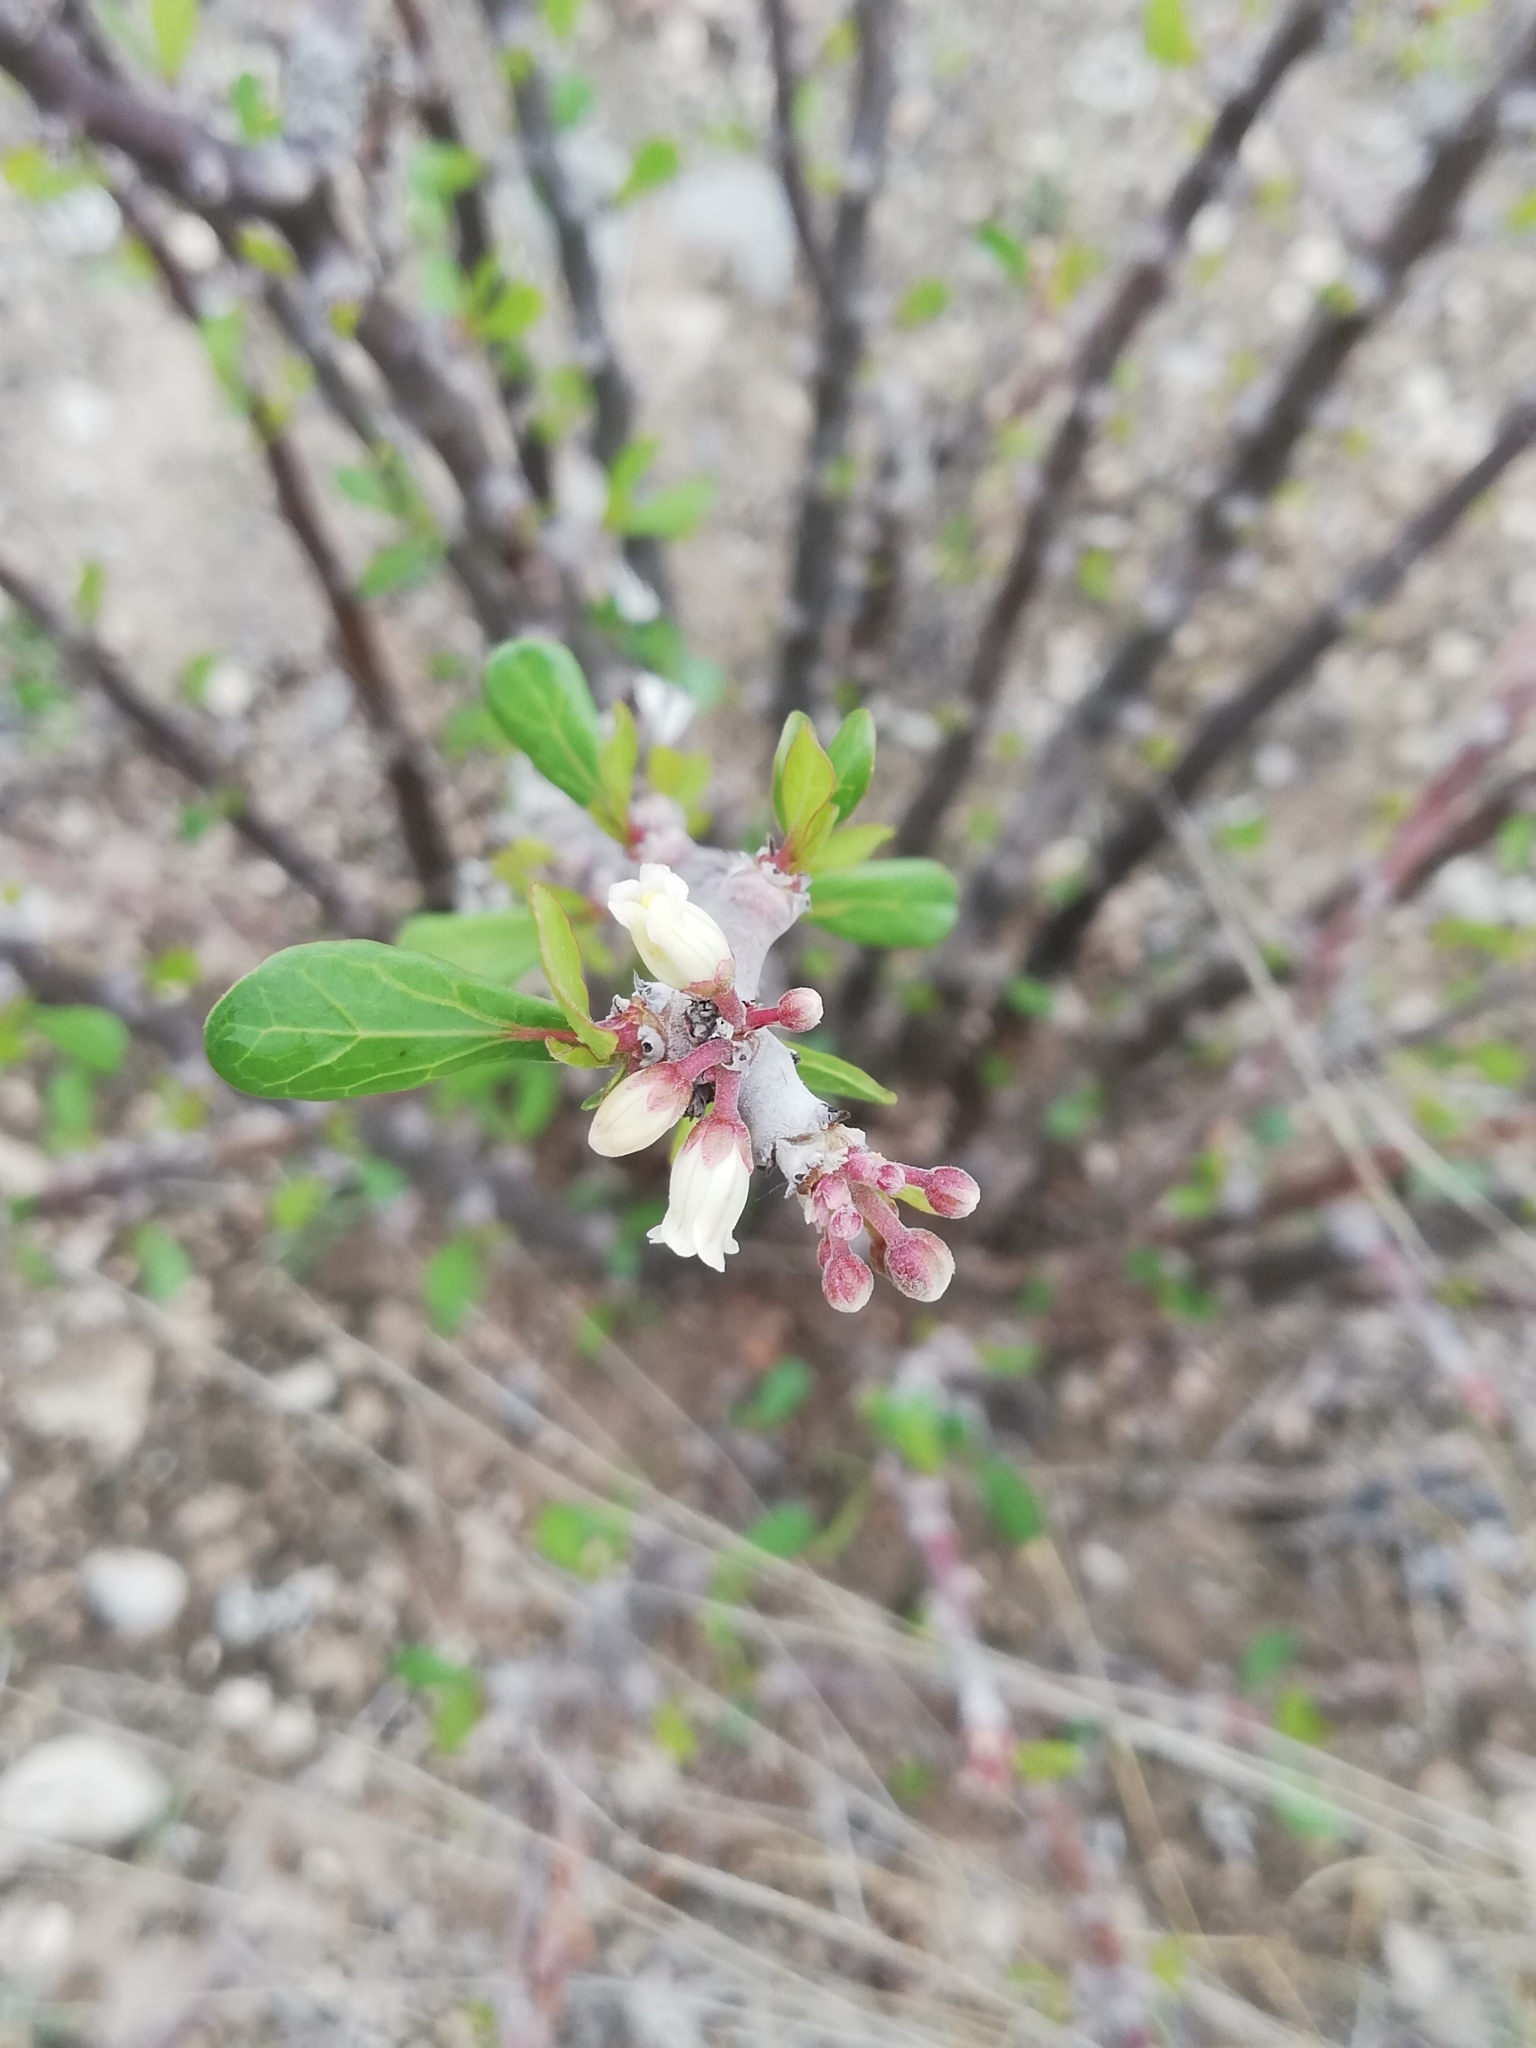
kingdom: Plantae
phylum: Tracheophyta
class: Magnoliopsida
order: Malpighiales
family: Euphorbiaceae
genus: Jatropha
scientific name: Jatropha dioica
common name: Leatherstem
